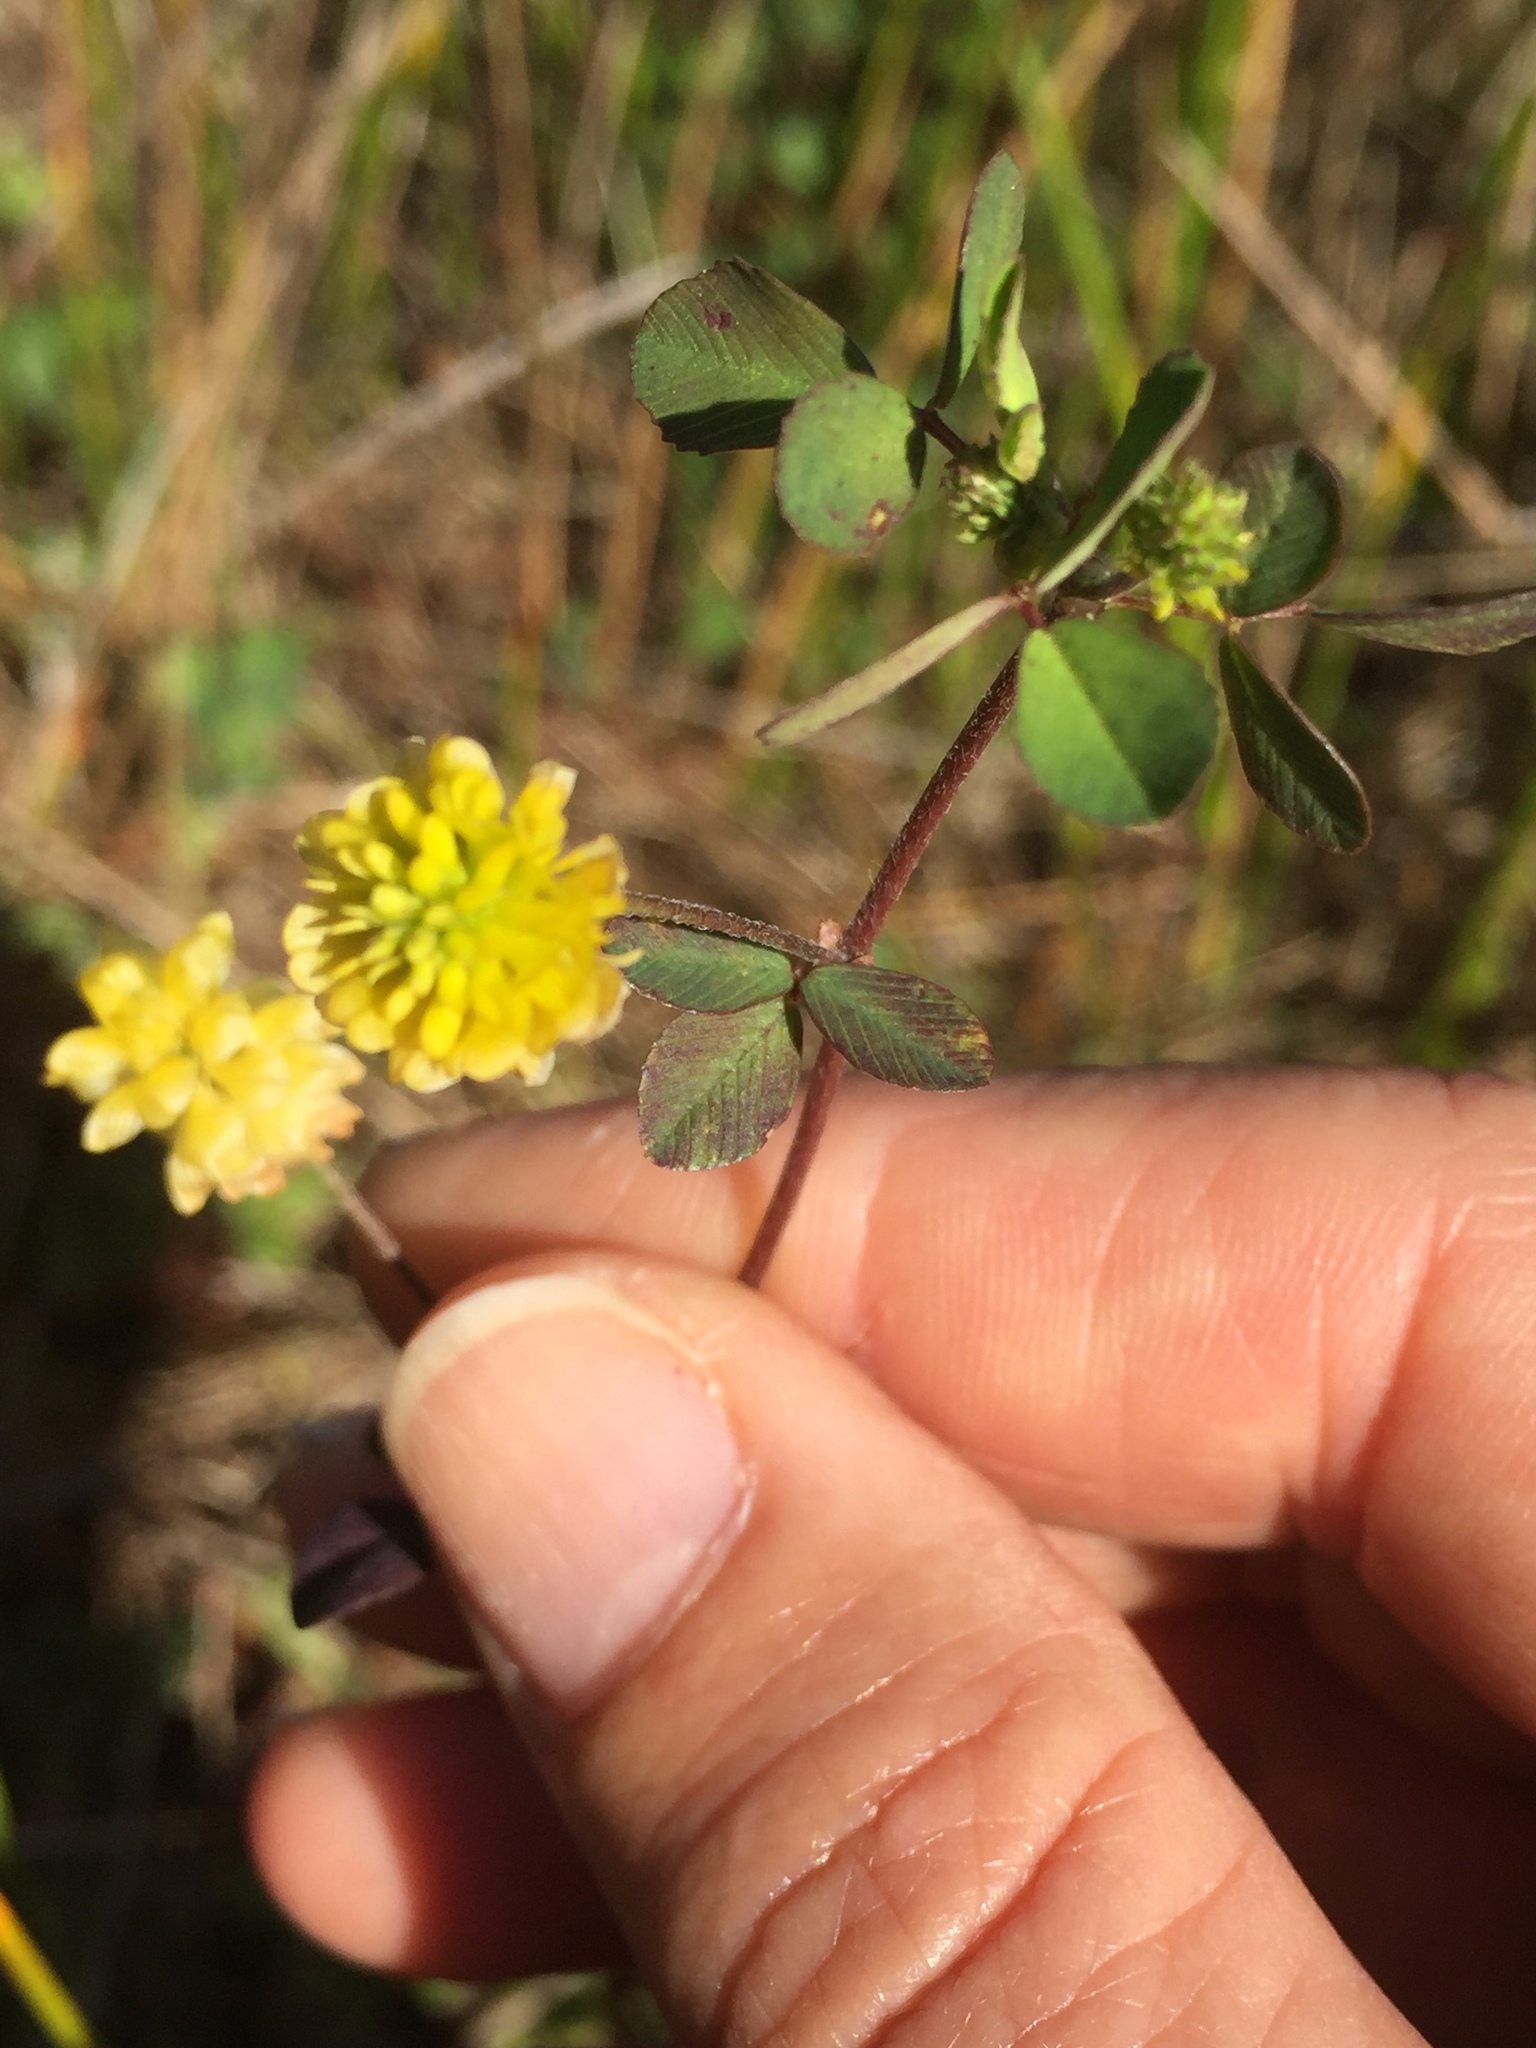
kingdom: Plantae
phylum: Tracheophyta
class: Magnoliopsida
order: Fabales
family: Fabaceae
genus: Trifolium
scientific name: Trifolium campestre
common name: Field clover
